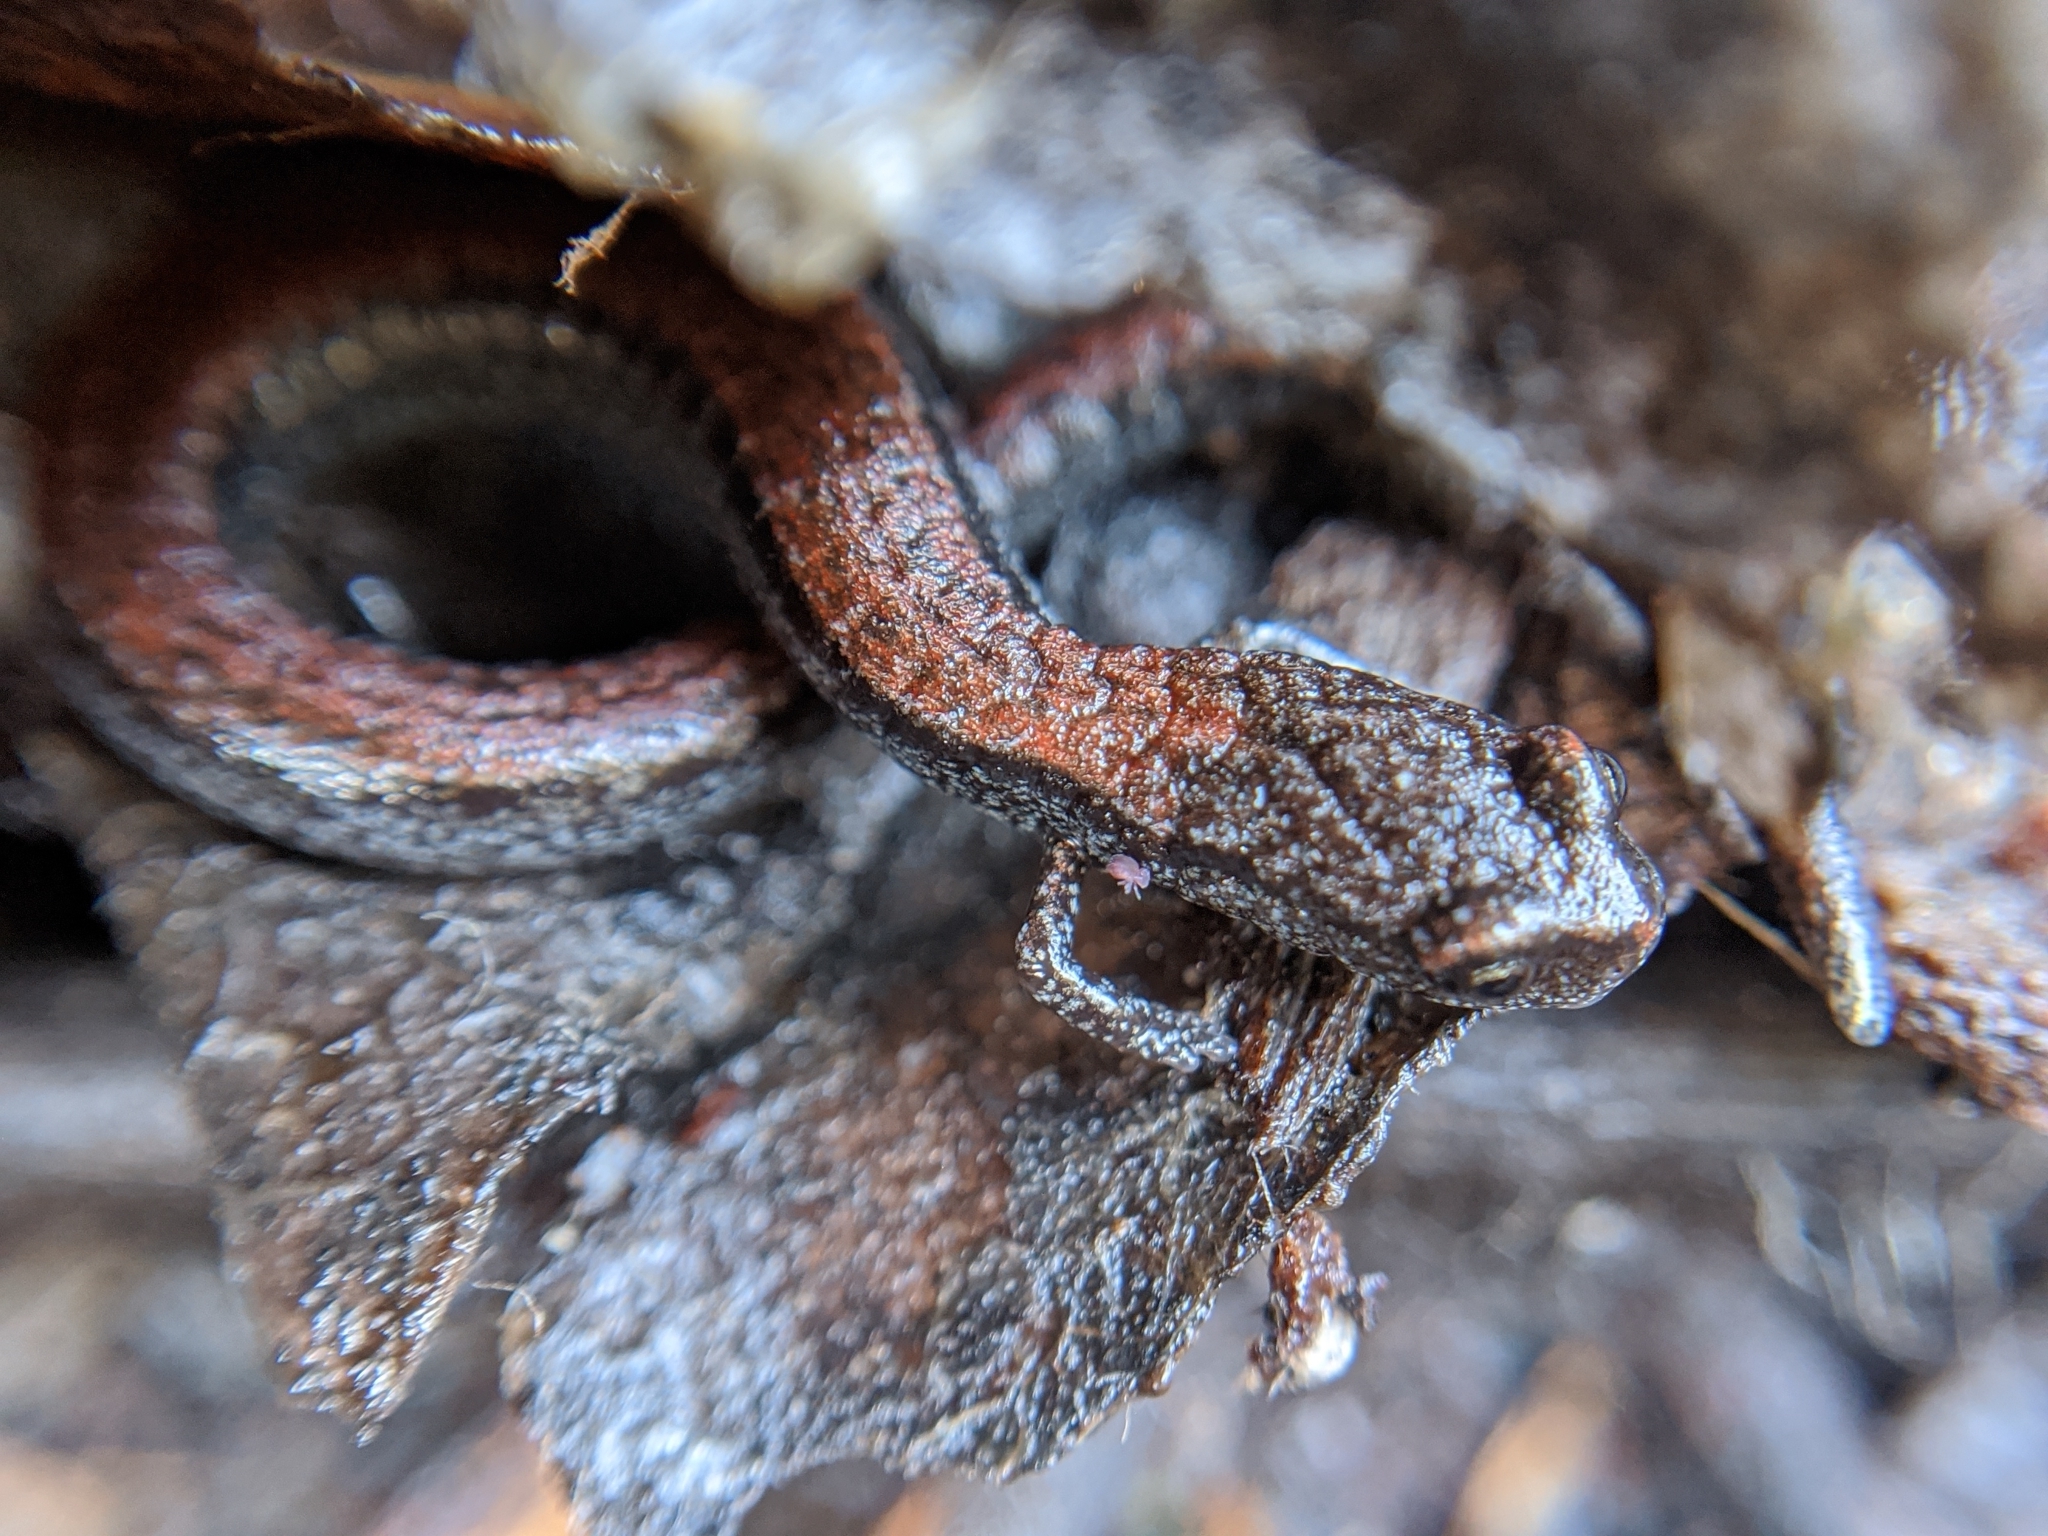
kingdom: Animalia
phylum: Chordata
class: Amphibia
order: Caudata
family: Plethodontidae
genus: Batrachoseps
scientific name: Batrachoseps nigriventris
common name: Black-bellied slender salamander
